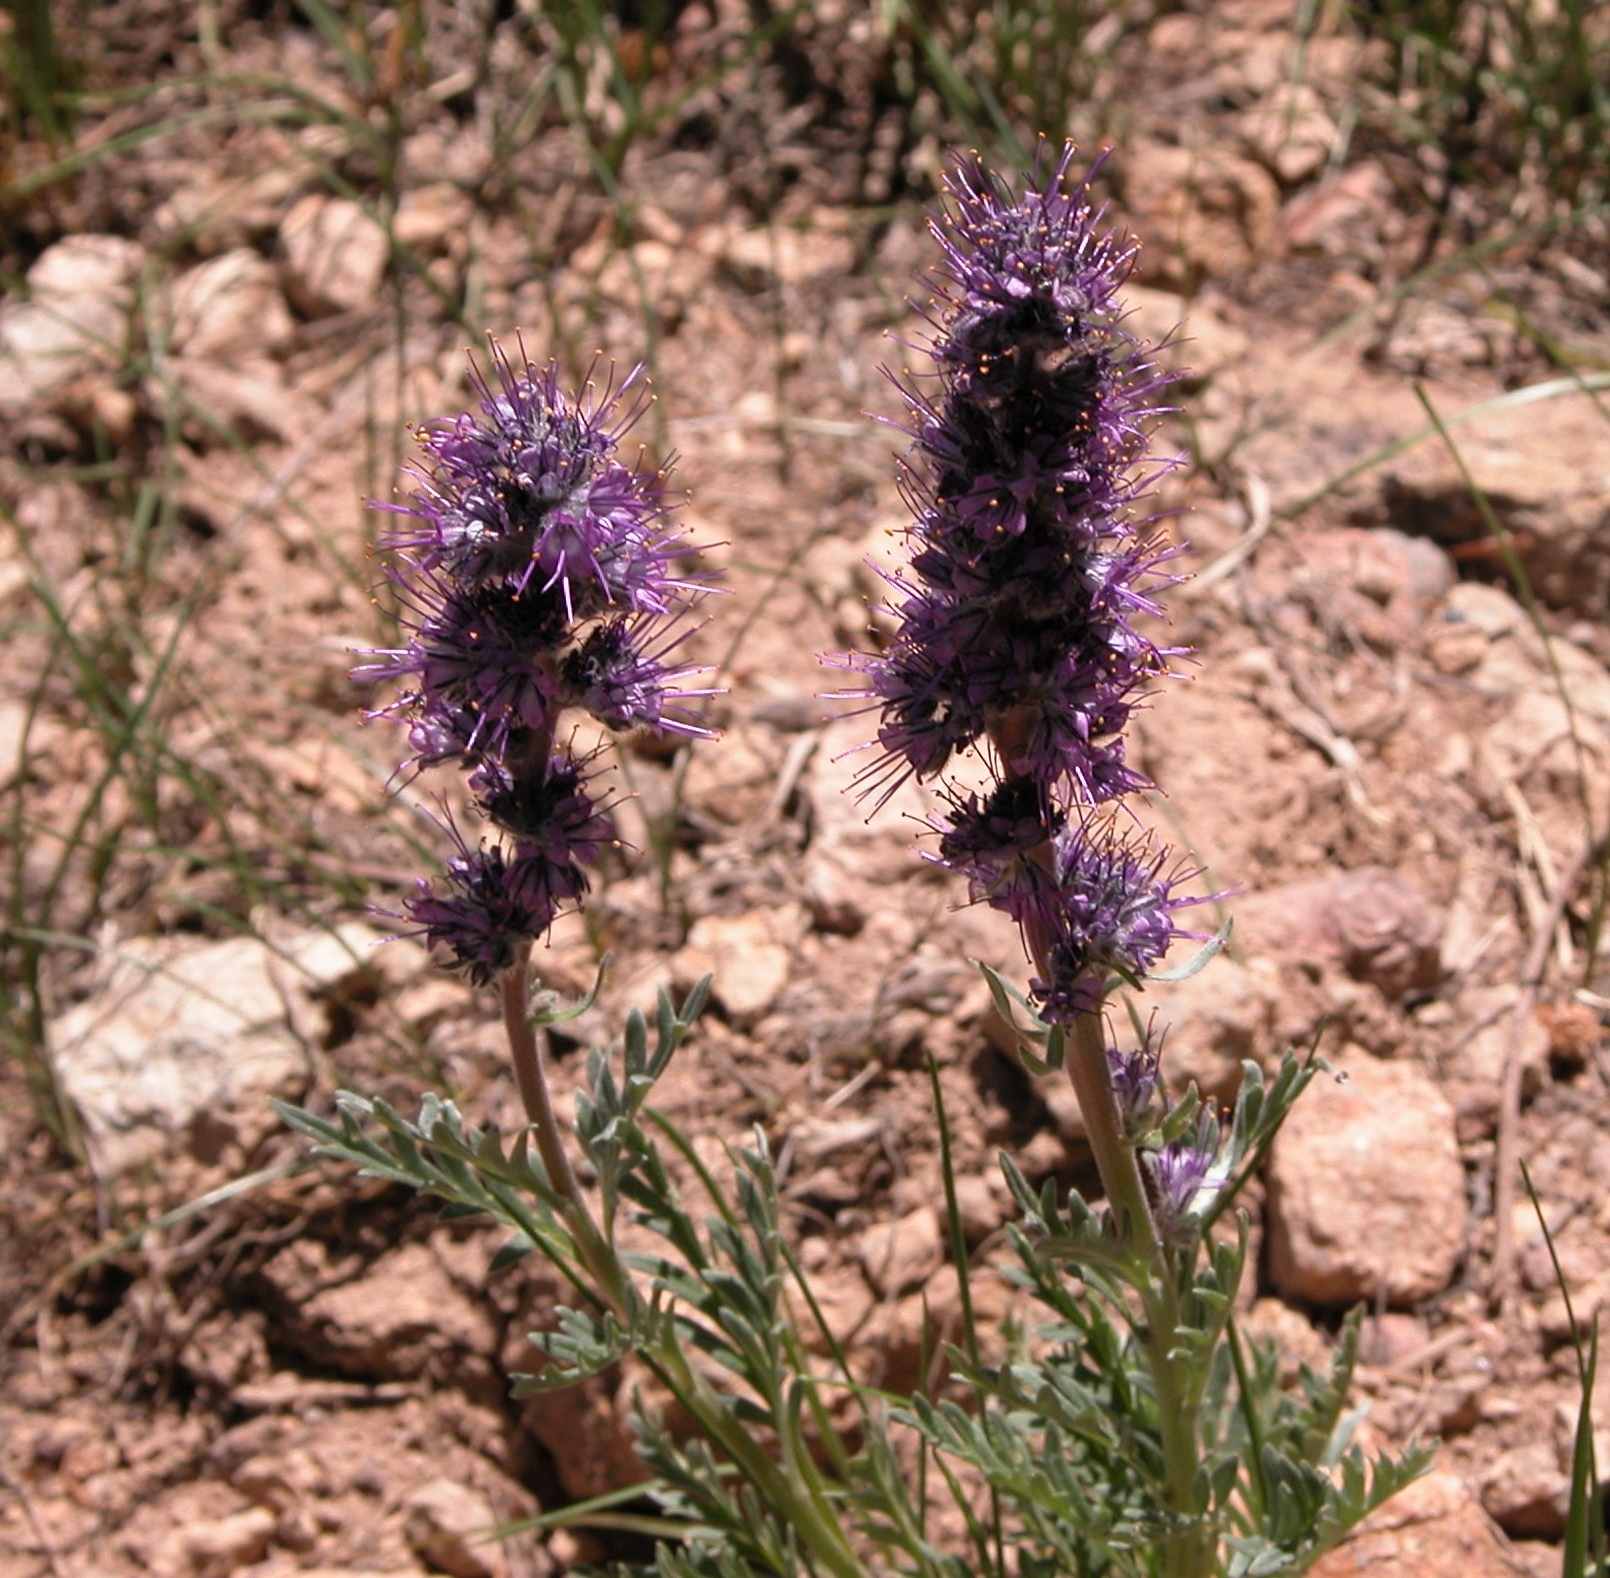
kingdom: Plantae
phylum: Tracheophyta
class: Magnoliopsida
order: Boraginales
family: Hydrophyllaceae
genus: Phacelia
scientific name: Phacelia sericea
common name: Silky phacelia
